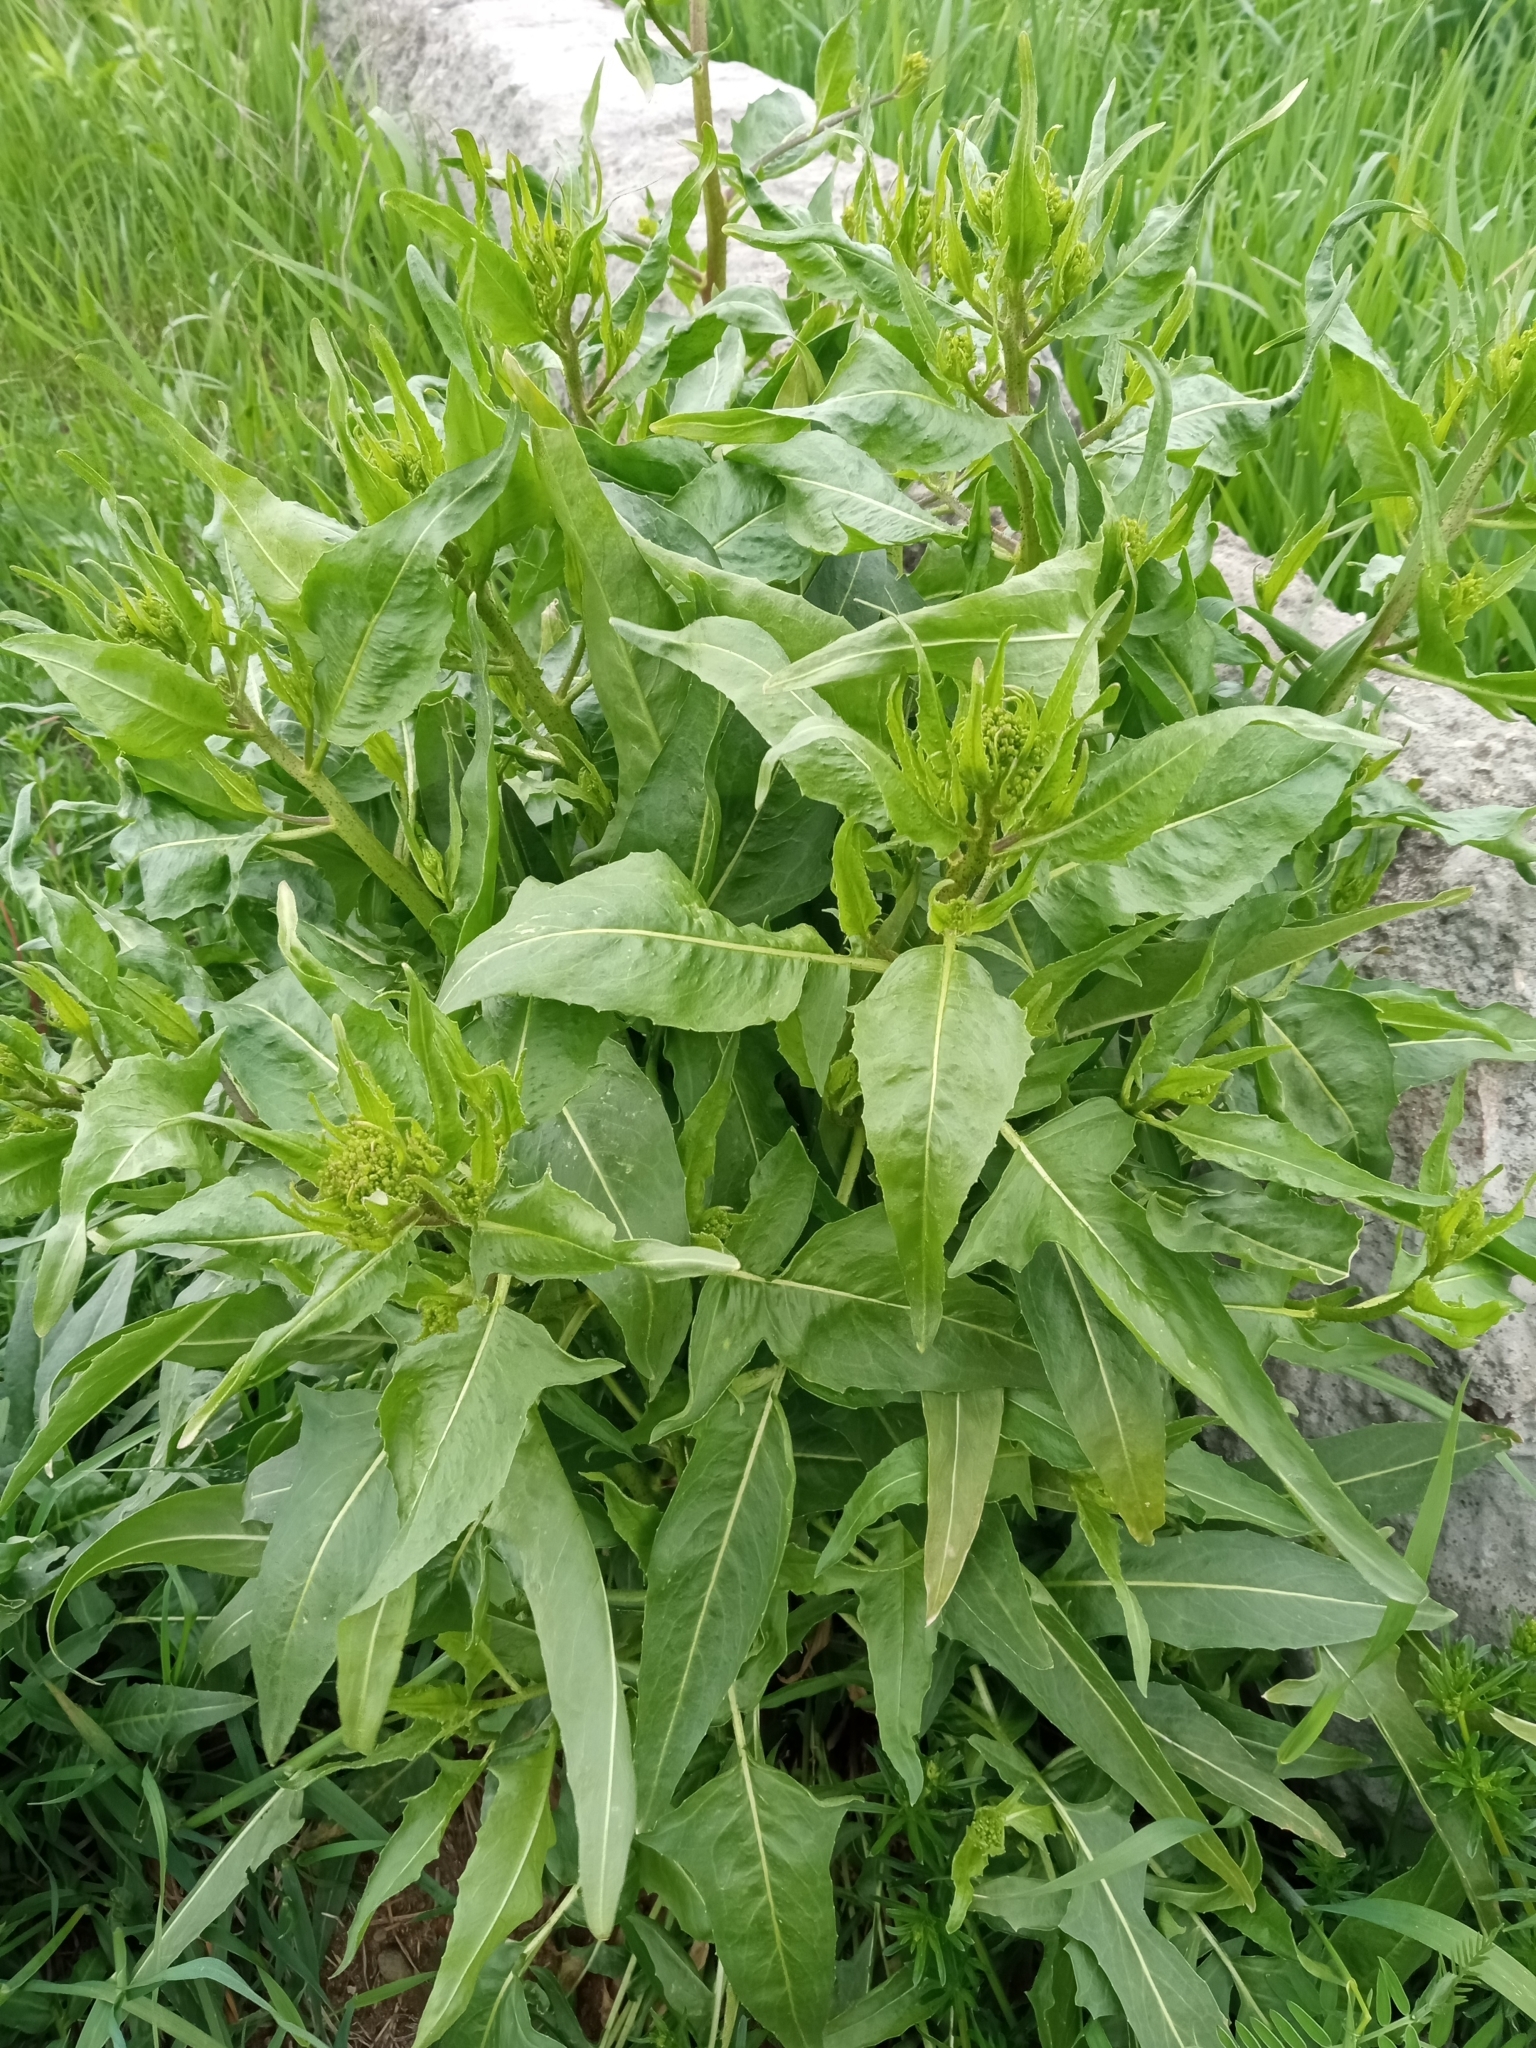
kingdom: Plantae
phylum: Tracheophyta
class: Magnoliopsida
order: Brassicales
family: Brassicaceae
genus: Bunias
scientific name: Bunias orientalis
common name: Warty-cabbage
